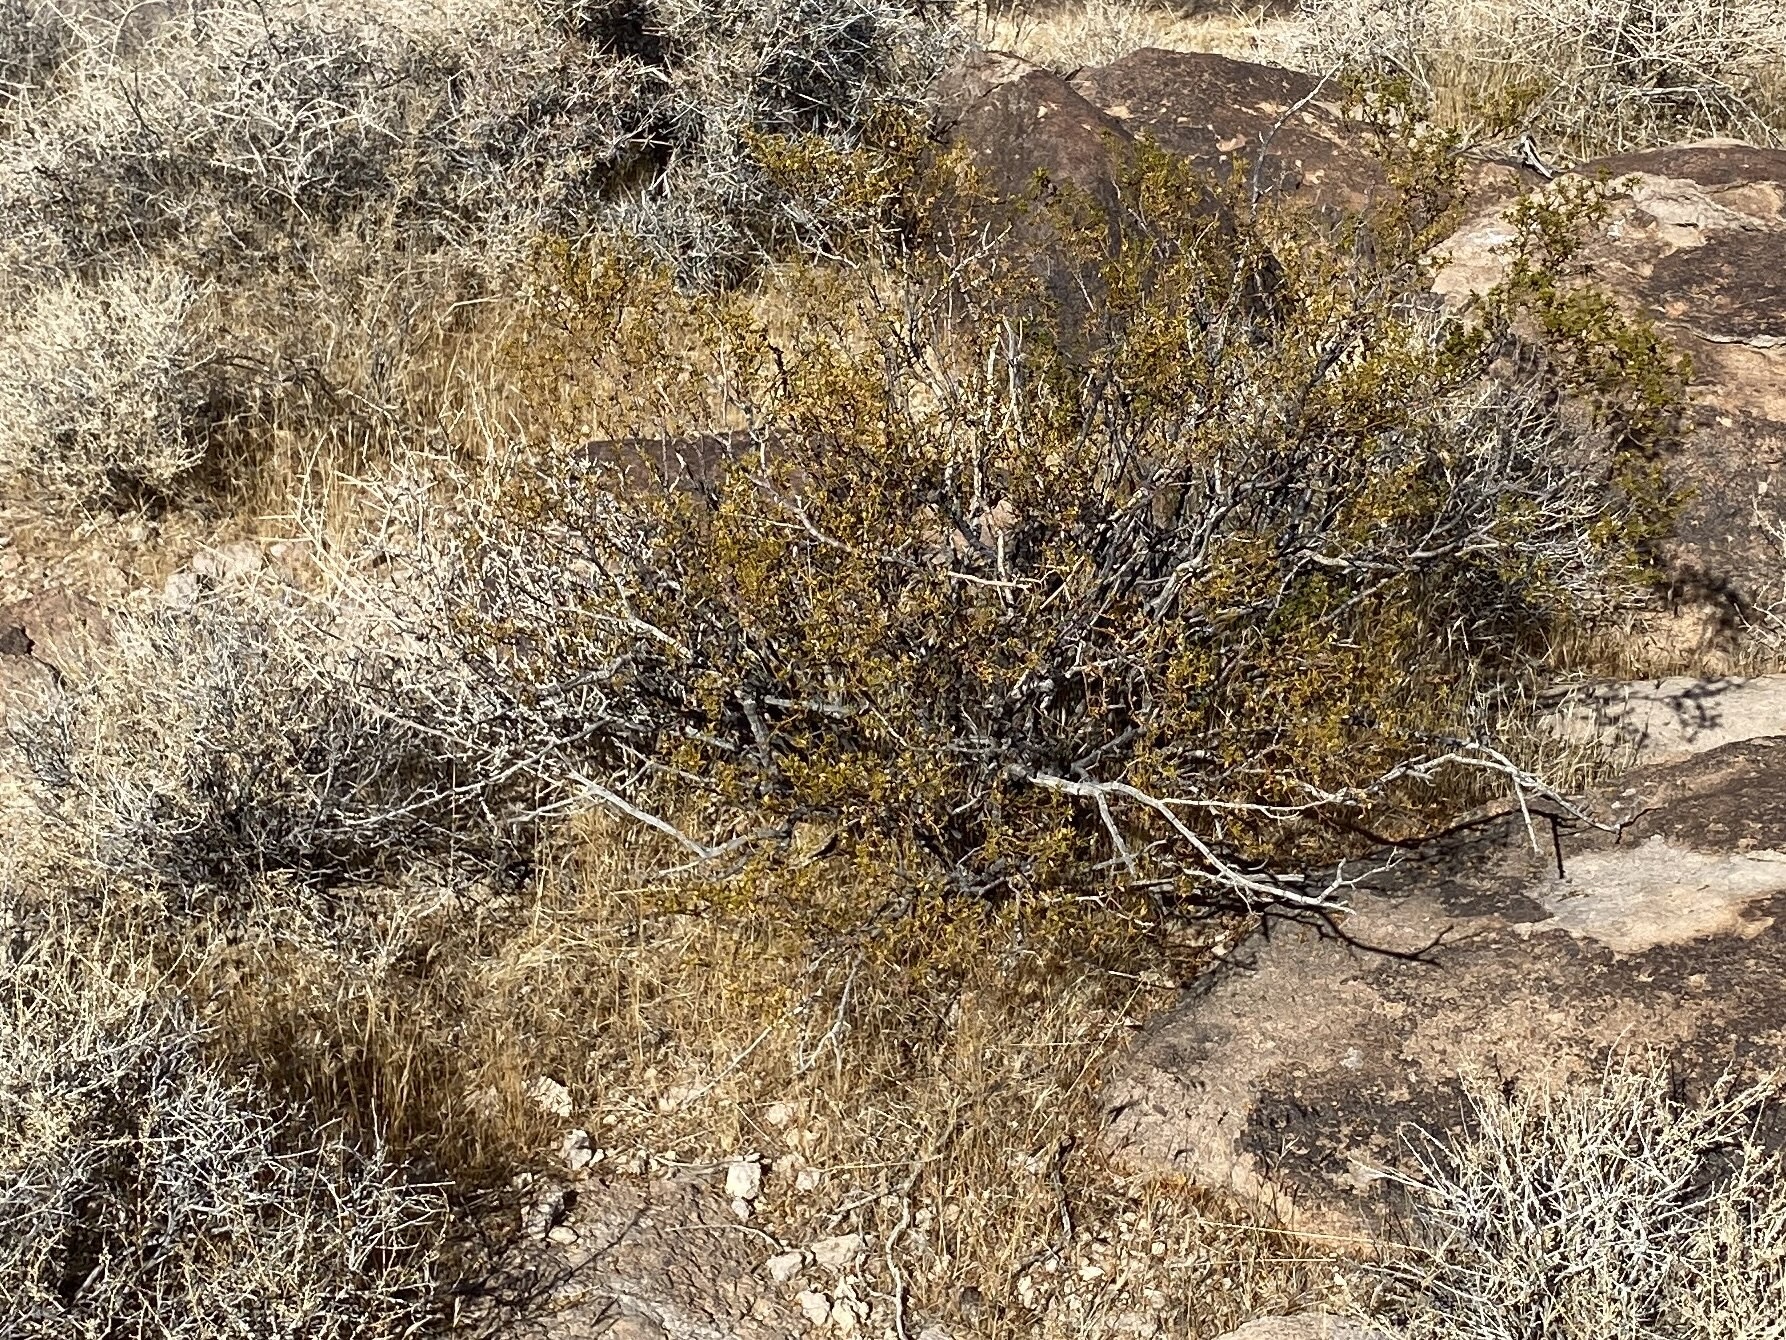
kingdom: Plantae
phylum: Tracheophyta
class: Magnoliopsida
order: Zygophyllales
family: Zygophyllaceae
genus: Larrea
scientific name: Larrea tridentata
